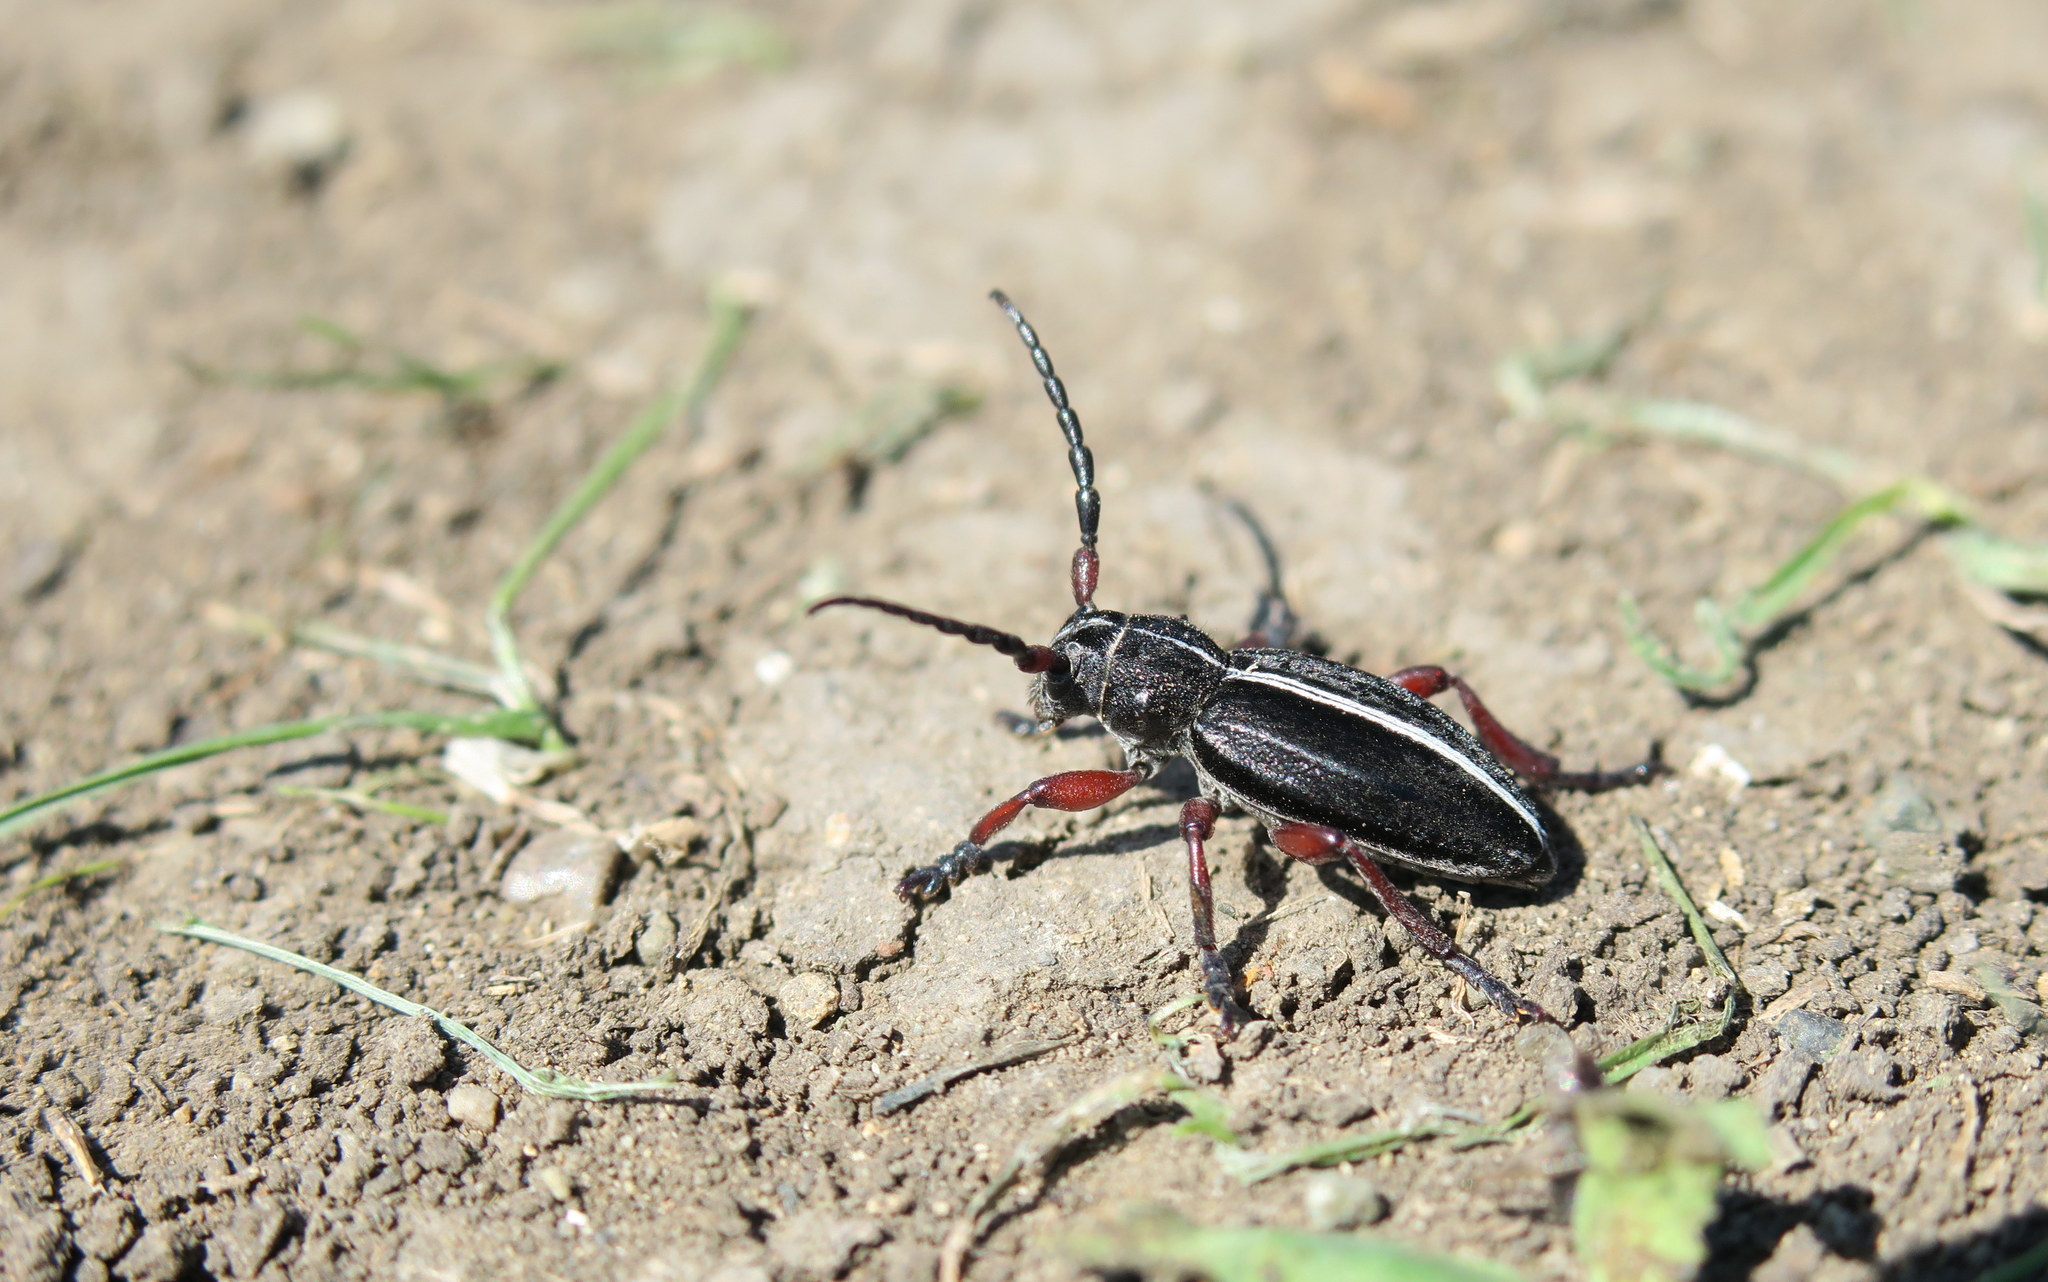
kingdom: Animalia
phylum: Arthropoda
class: Insecta
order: Coleoptera
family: Cerambycidae
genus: Dorcadion
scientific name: Dorcadion sulcipenne
